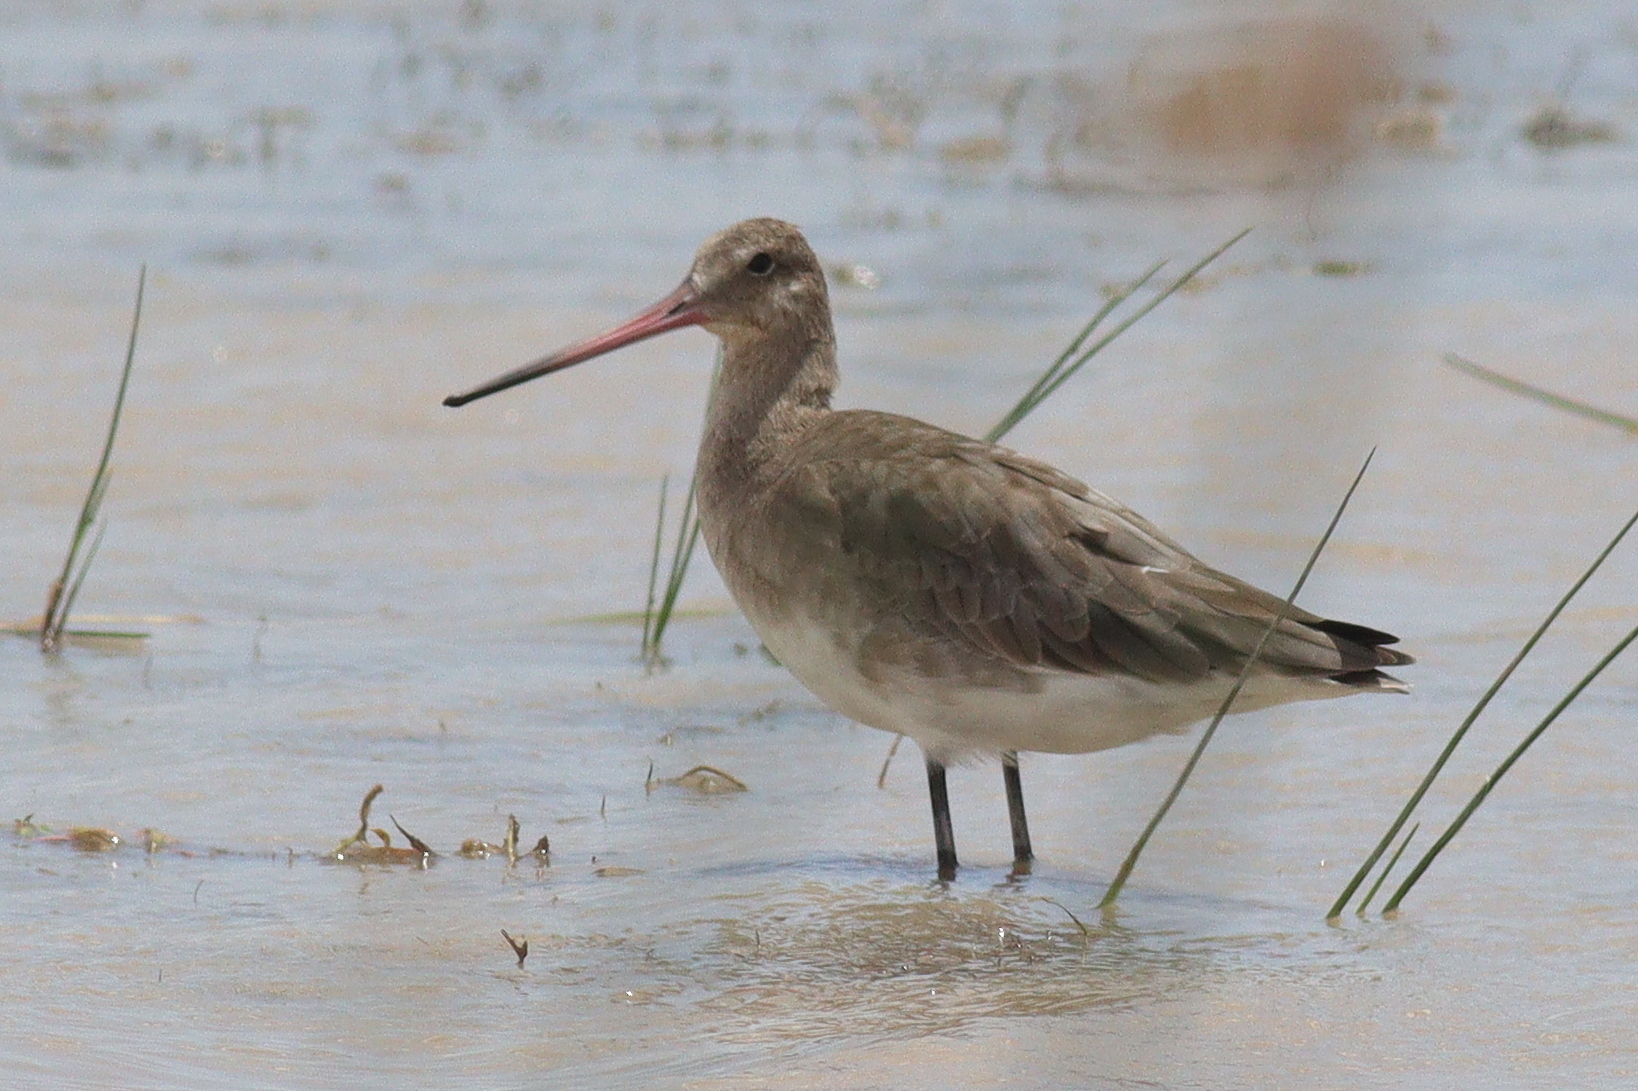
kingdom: Animalia
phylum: Chordata
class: Aves
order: Charadriiformes
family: Scolopacidae
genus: Limosa
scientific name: Limosa limosa
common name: Black-tailed godwit
